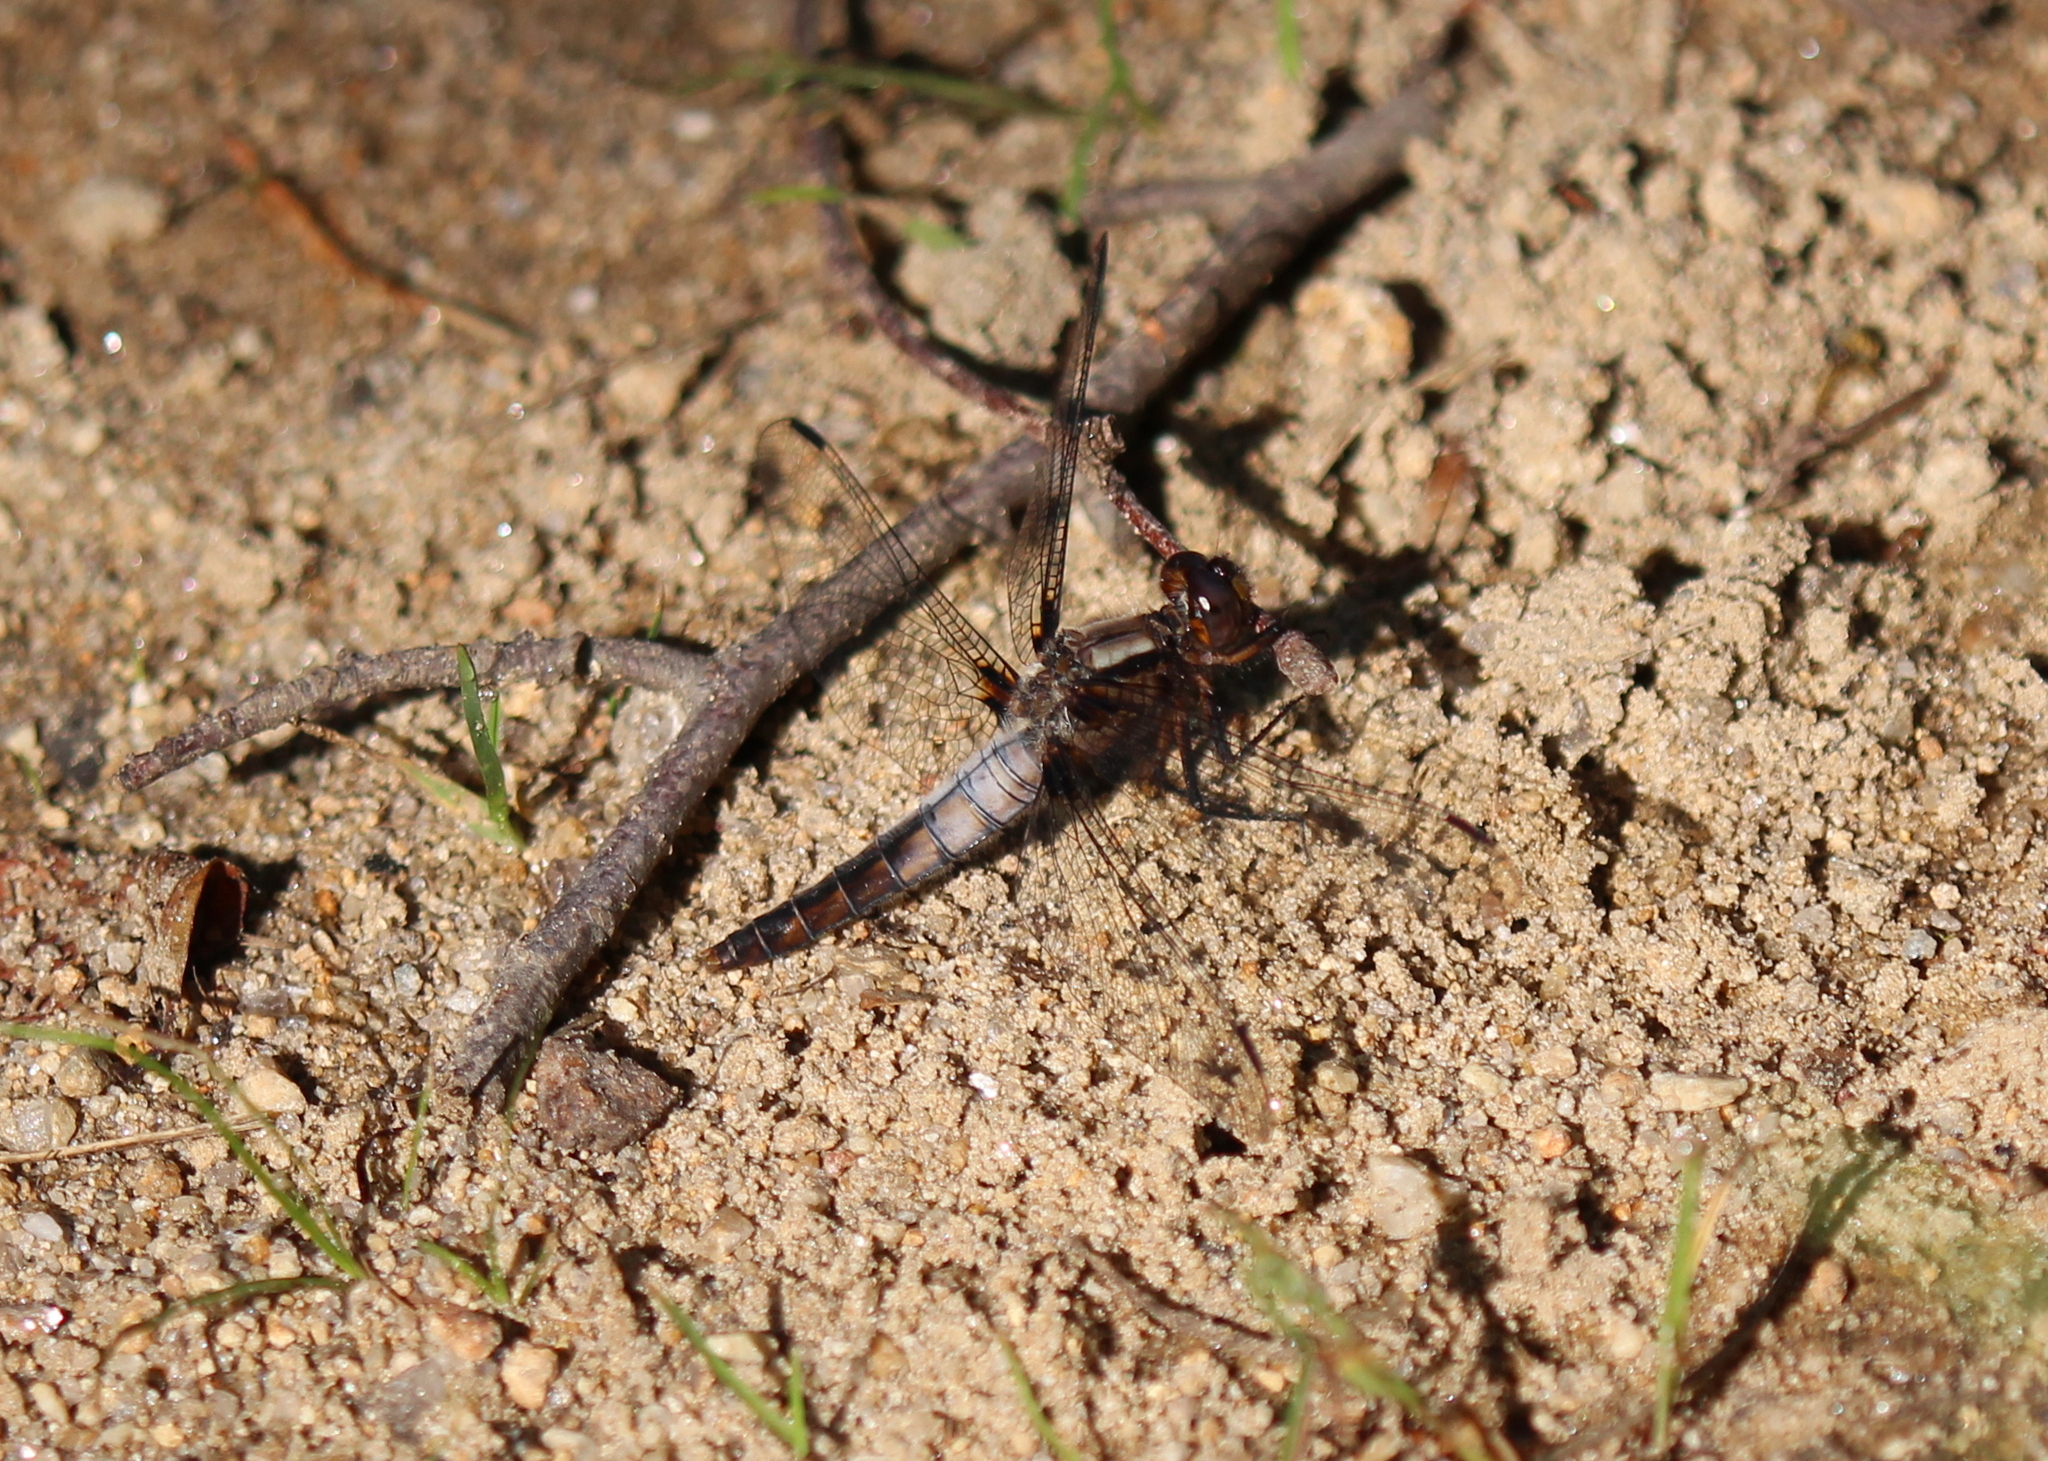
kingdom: Animalia
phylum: Arthropoda
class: Insecta
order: Odonata
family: Libellulidae
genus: Ladona
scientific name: Ladona julia
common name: Chalk-fronted corporal
